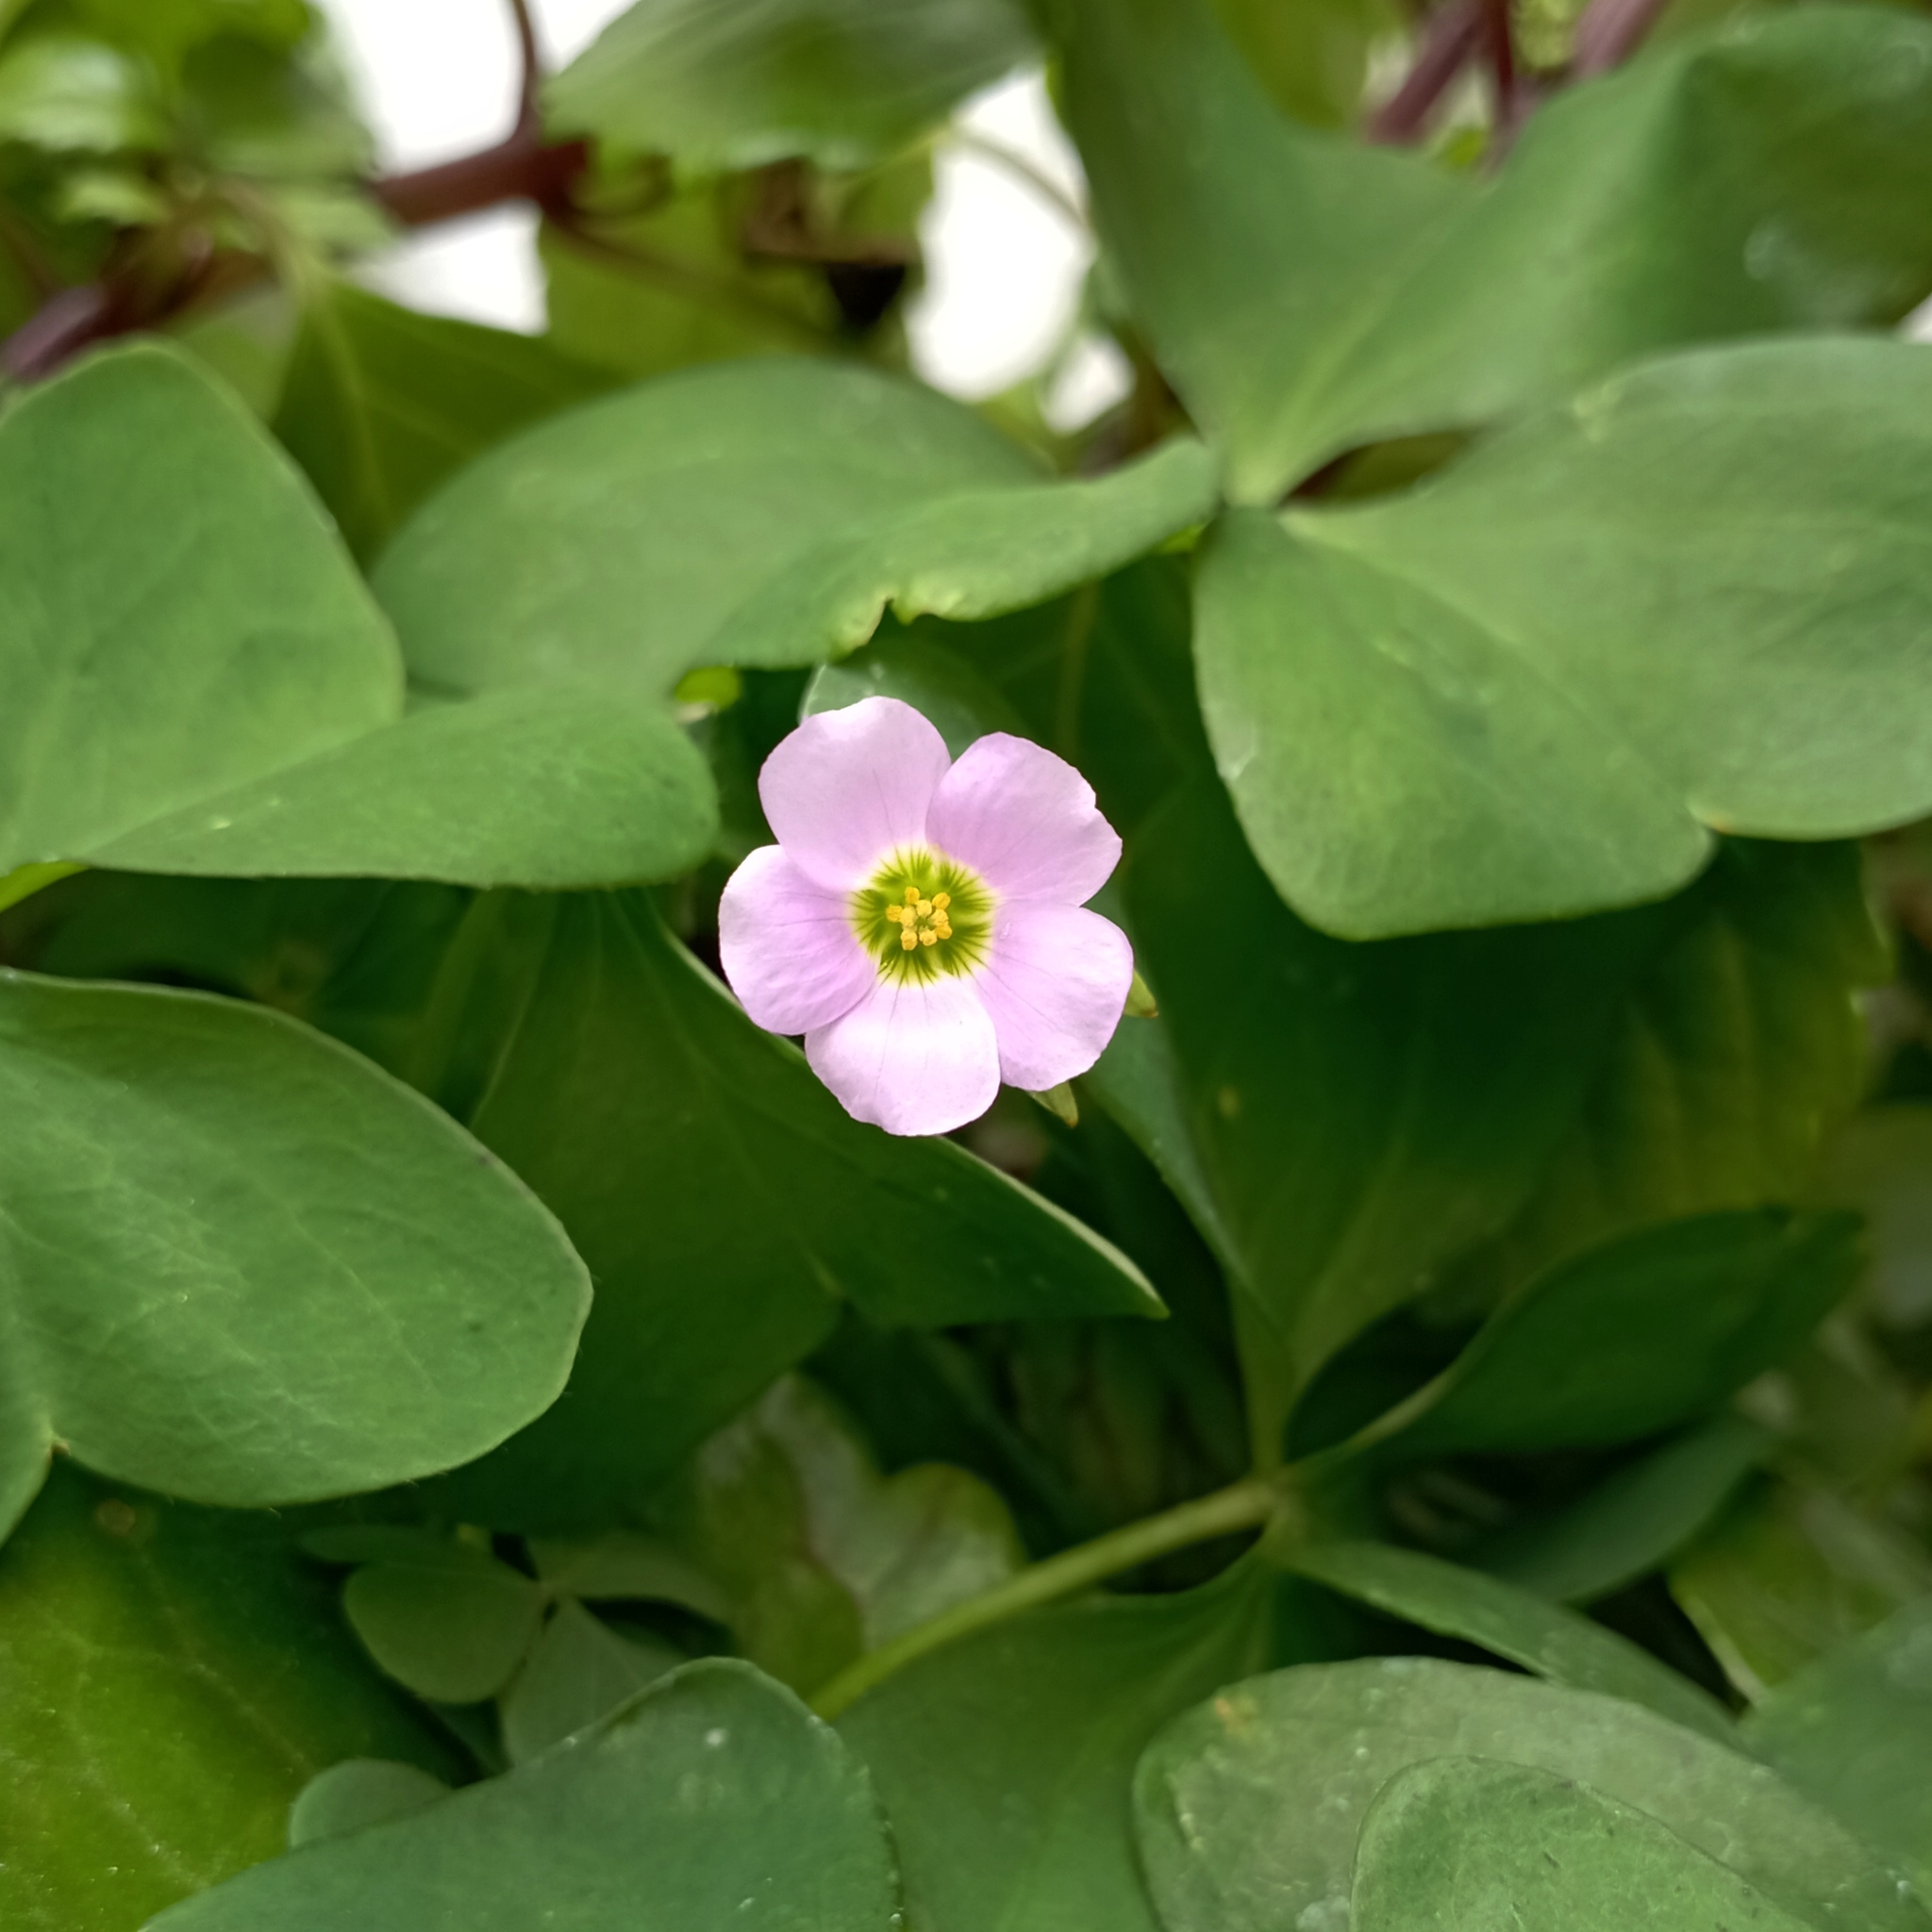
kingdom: Plantae
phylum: Tracheophyta
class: Magnoliopsida
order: Oxalidales
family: Oxalidaceae
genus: Oxalis
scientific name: Oxalis latifolia
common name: Garden pink-sorrel
